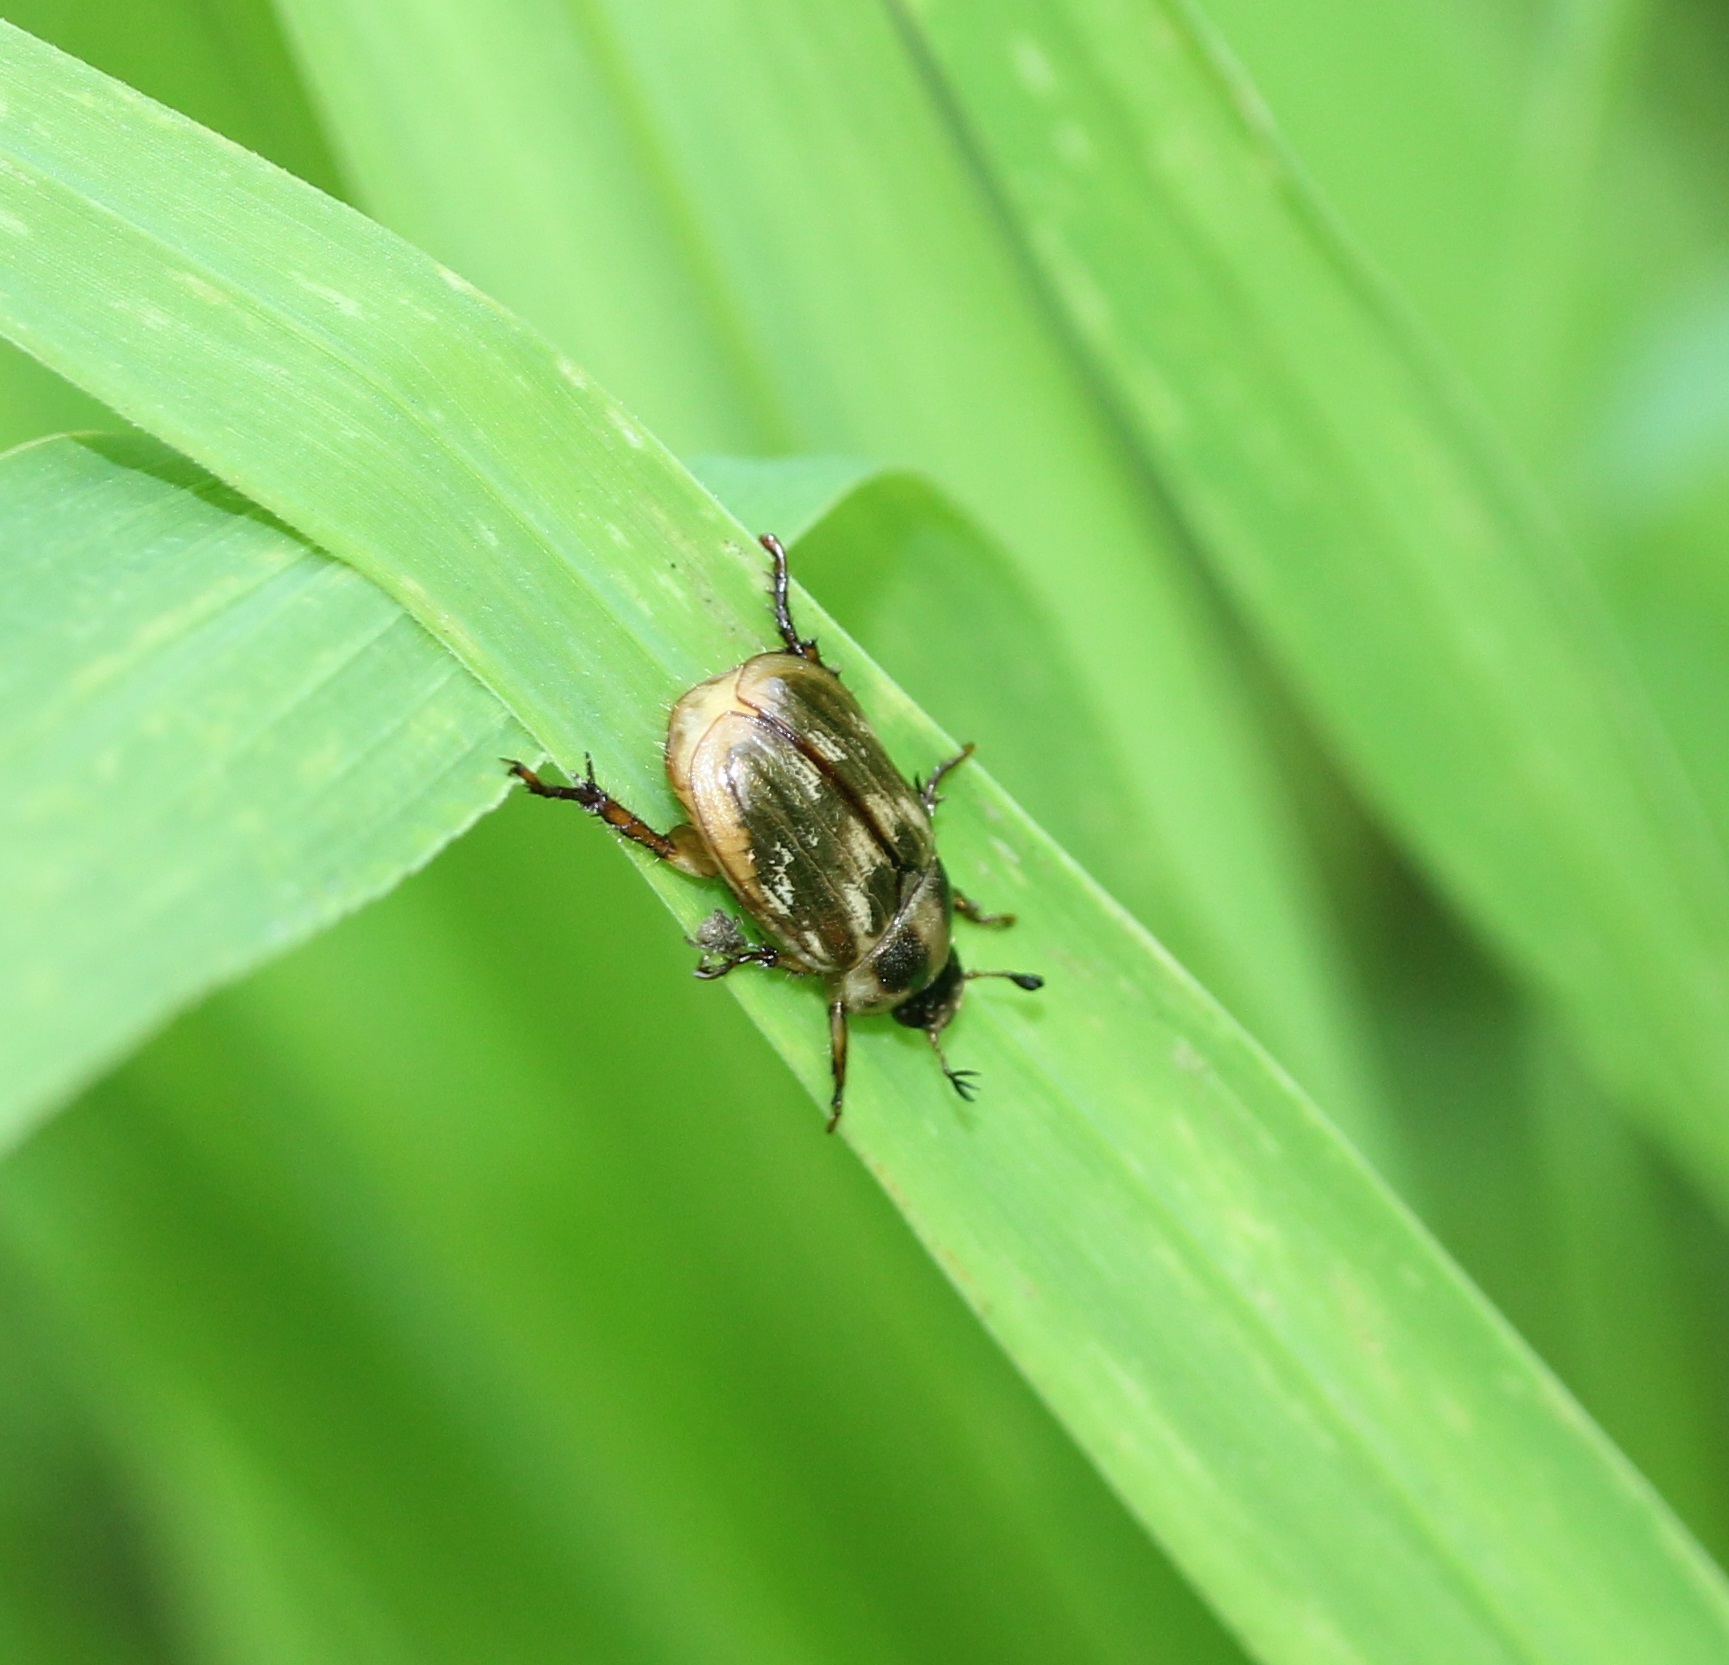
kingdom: Animalia
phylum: Arthropoda
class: Insecta
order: Coleoptera
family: Scarabaeidae
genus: Exomala
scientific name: Exomala orientalis
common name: Oriental beetle
